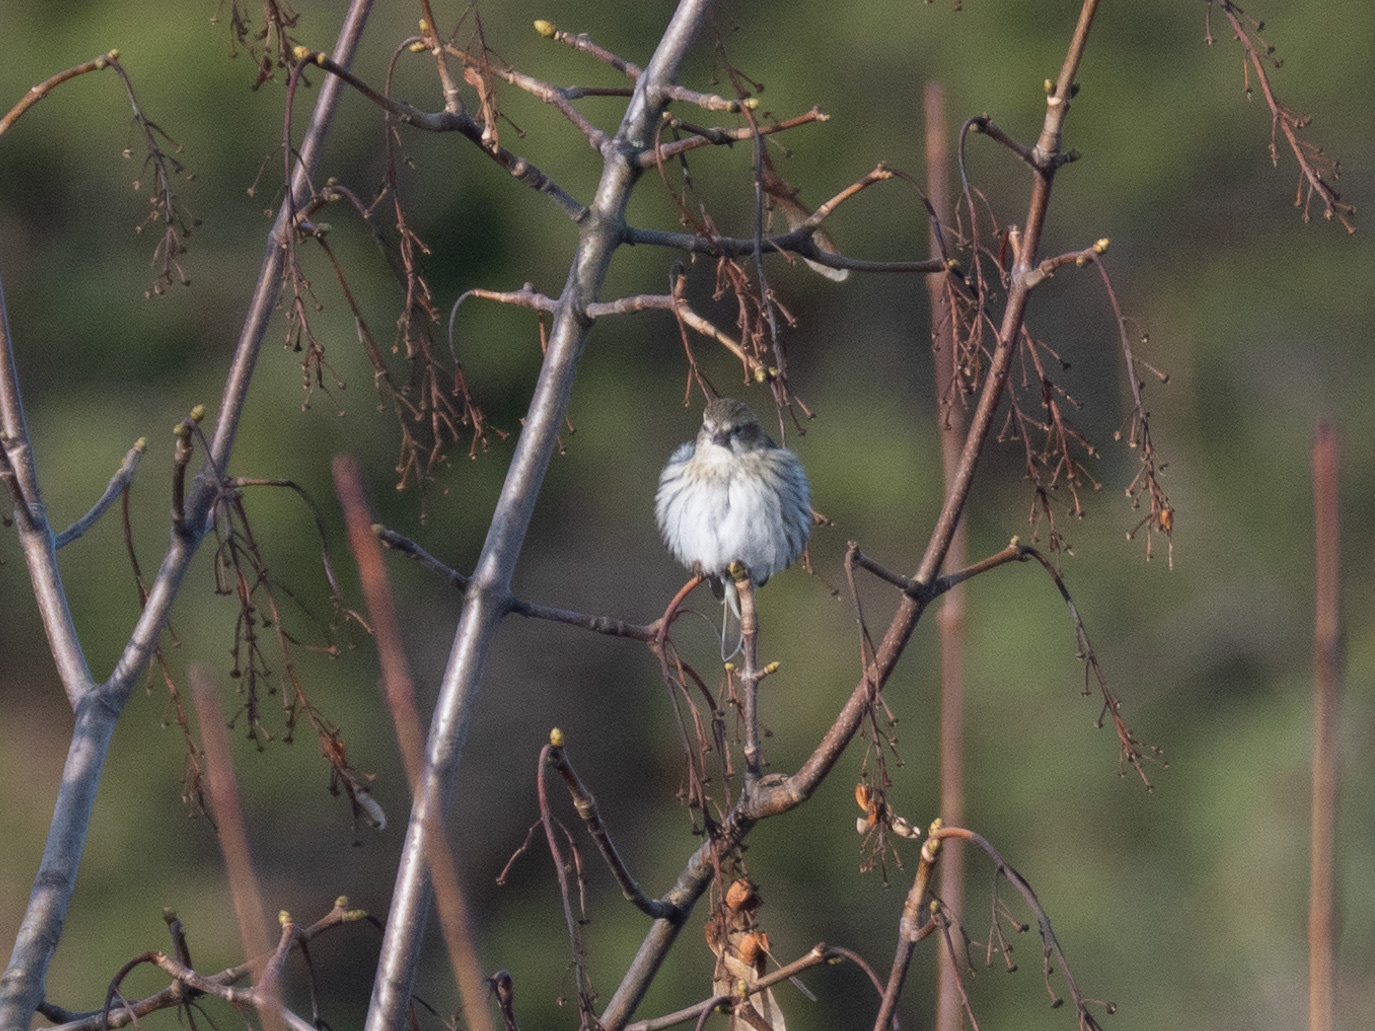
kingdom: Animalia
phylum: Chordata
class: Aves
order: Passeriformes
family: Fringillidae
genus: Spinus
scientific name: Spinus spinus
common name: Eurasian siskin
